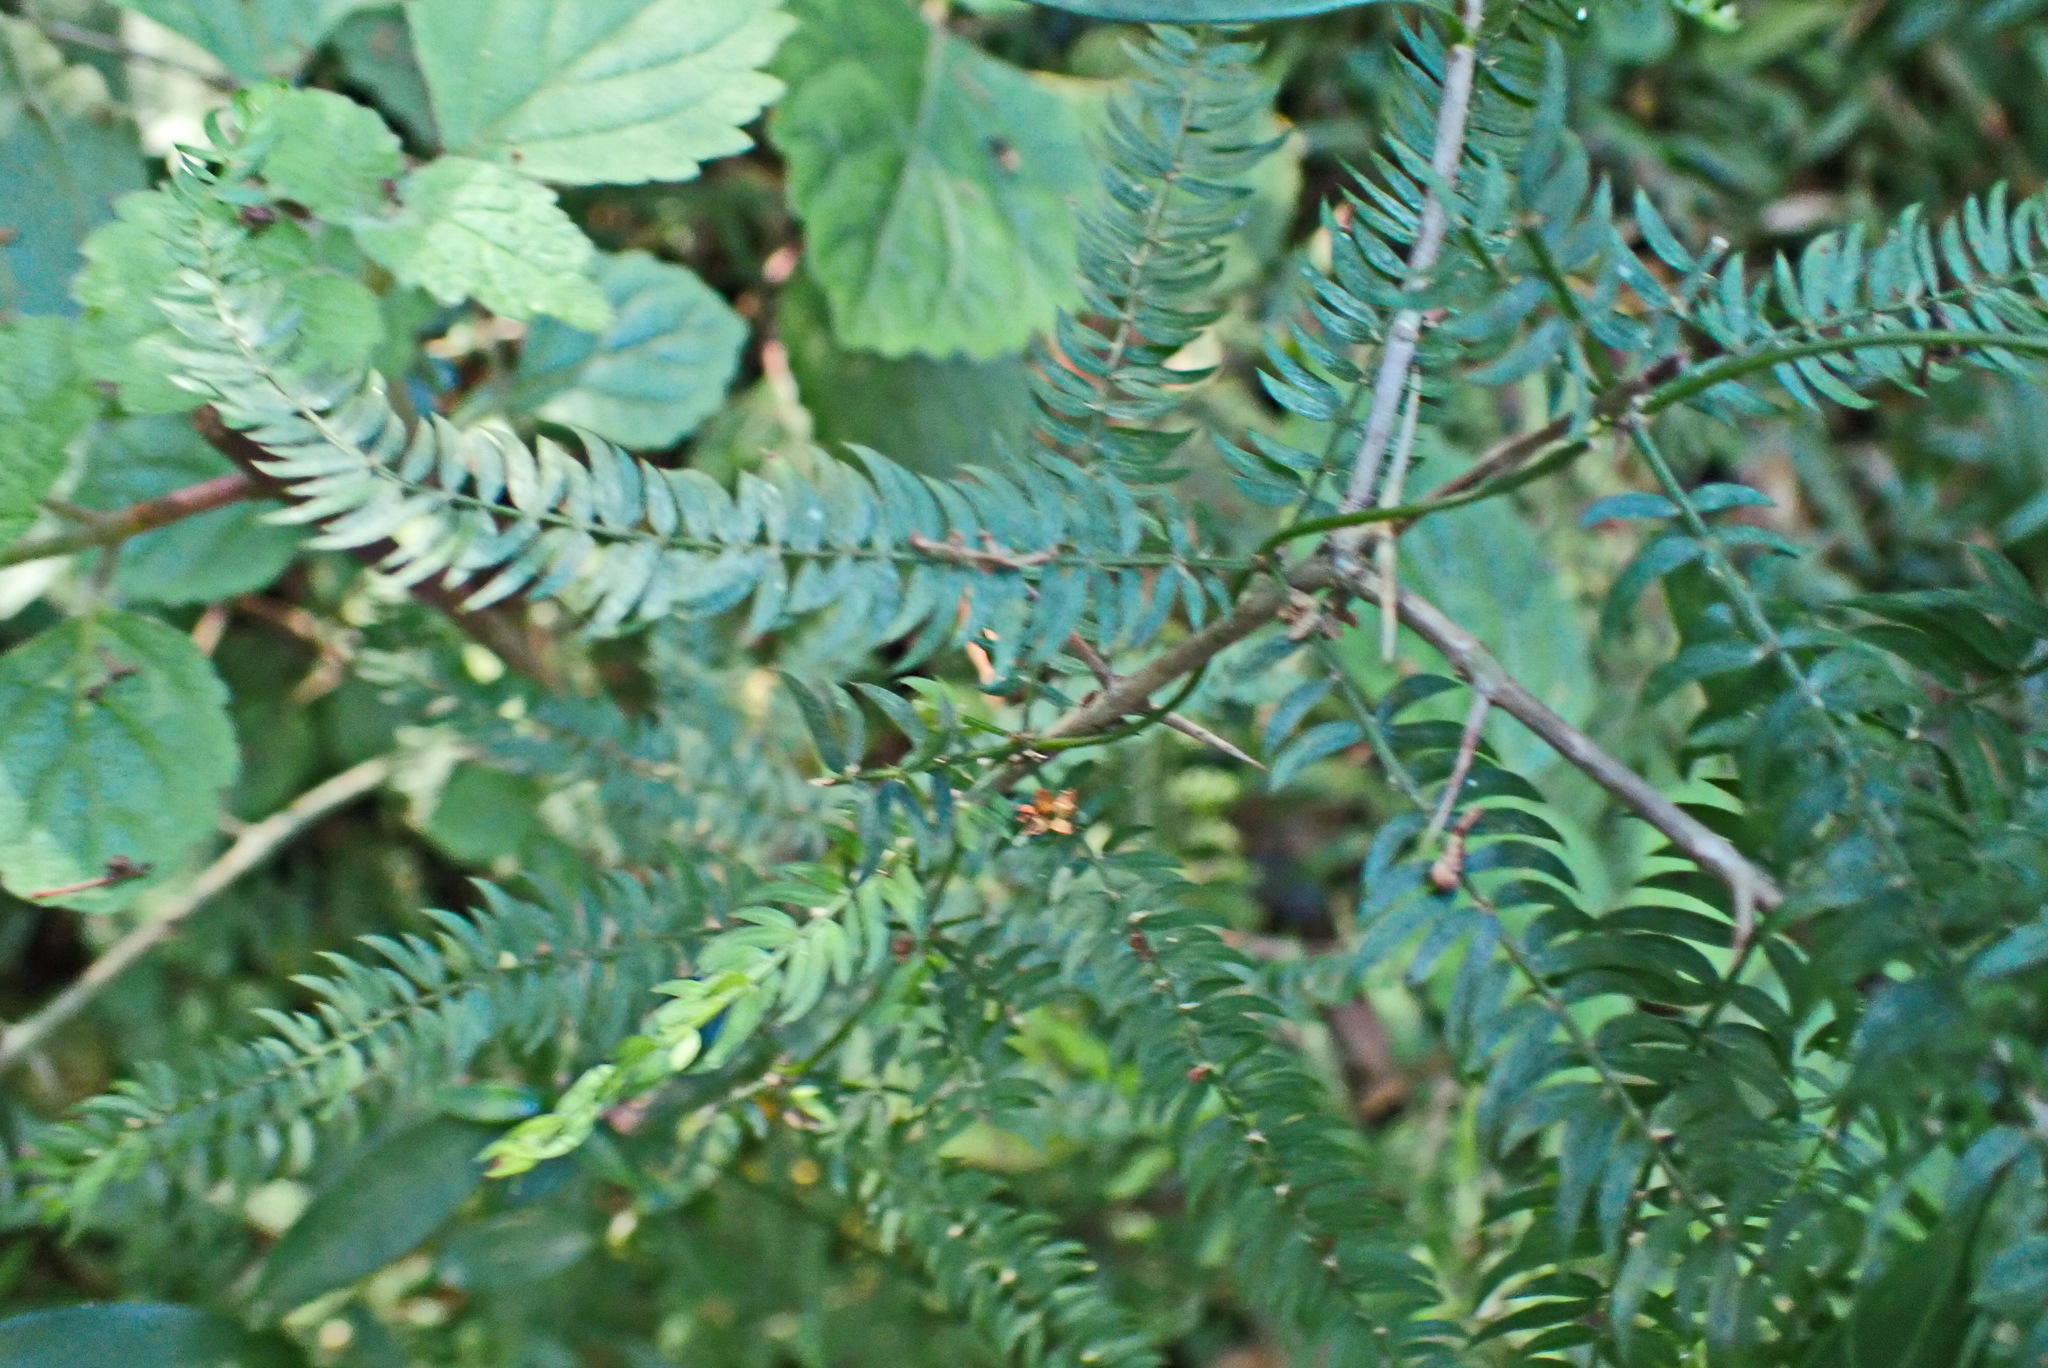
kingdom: Plantae
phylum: Tracheophyta
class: Liliopsida
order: Asparagales
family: Asparagaceae
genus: Asparagus
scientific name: Asparagus scandens
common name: Asparagus-fern
